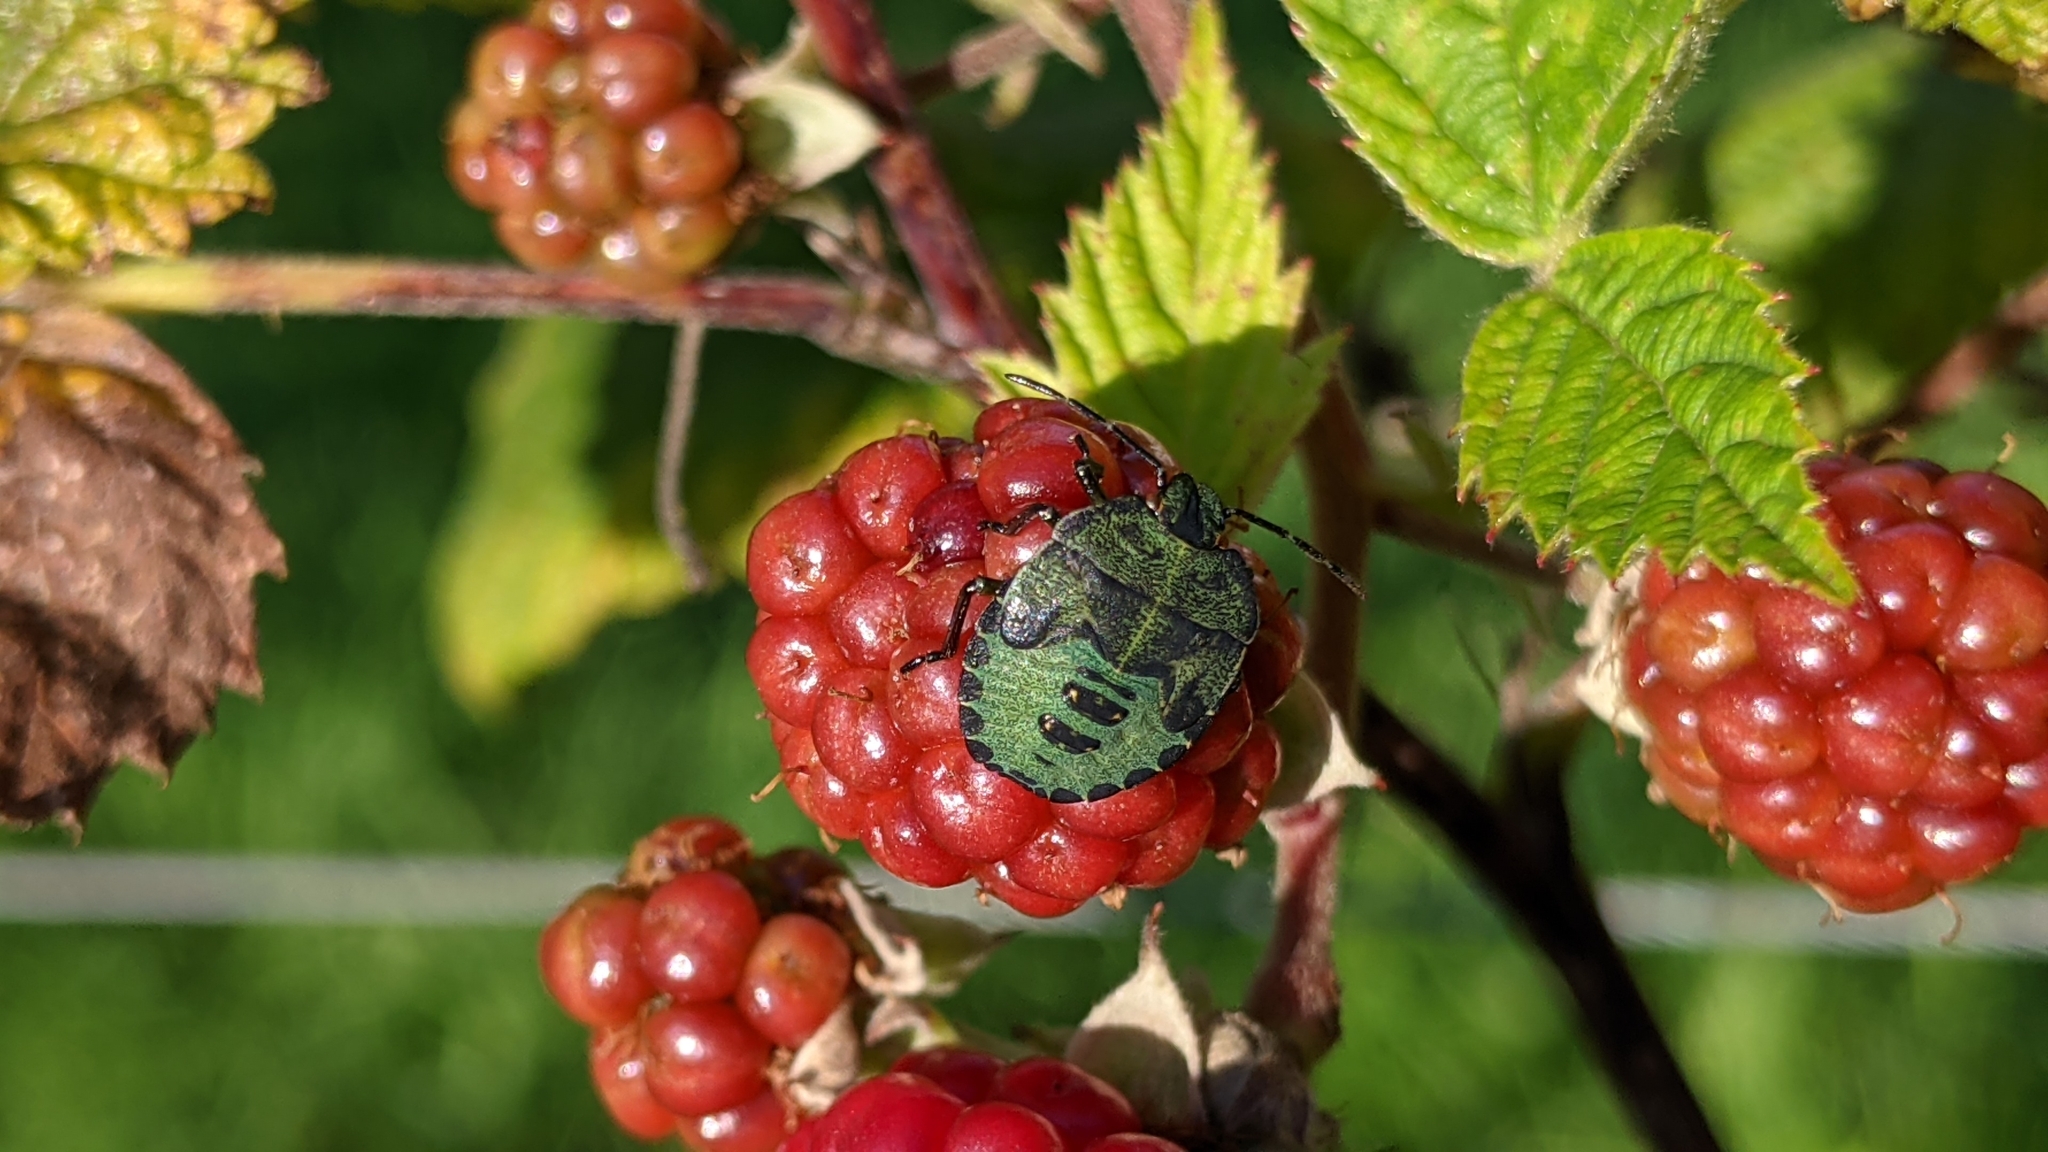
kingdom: Animalia
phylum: Arthropoda
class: Insecta
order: Hemiptera
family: Pentatomidae
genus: Palomena
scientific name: Palomena prasina
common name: Green shieldbug
